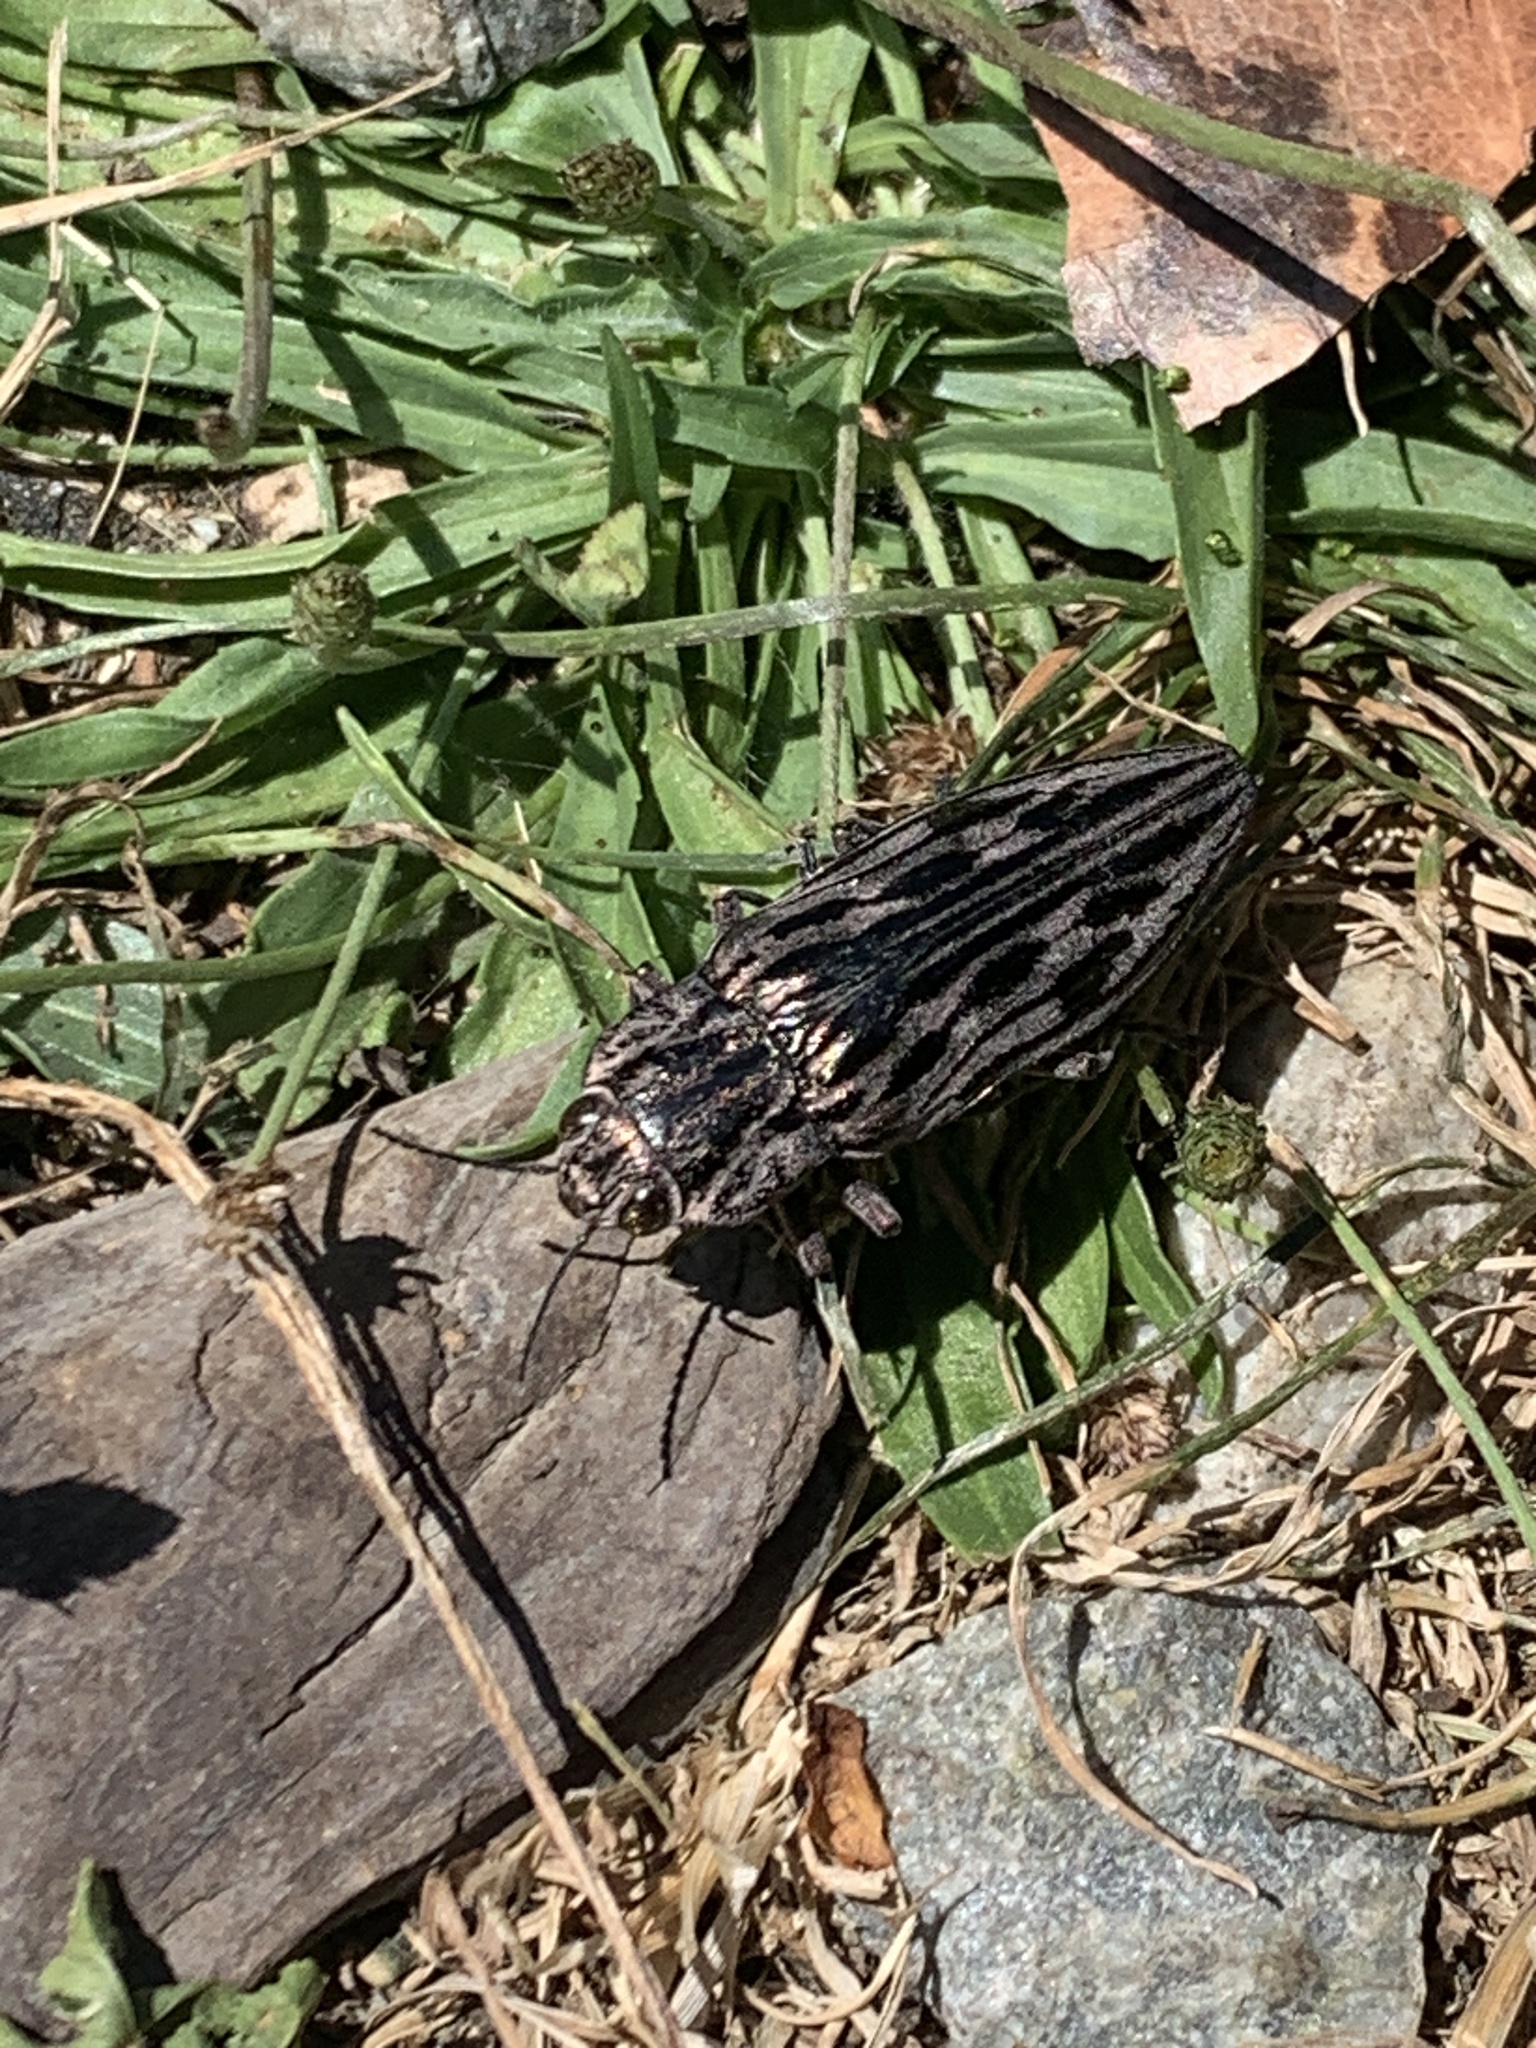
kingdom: Animalia
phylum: Arthropoda
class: Insecta
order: Coleoptera
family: Buprestidae
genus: Chalcophora
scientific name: Chalcophora angulicollis
